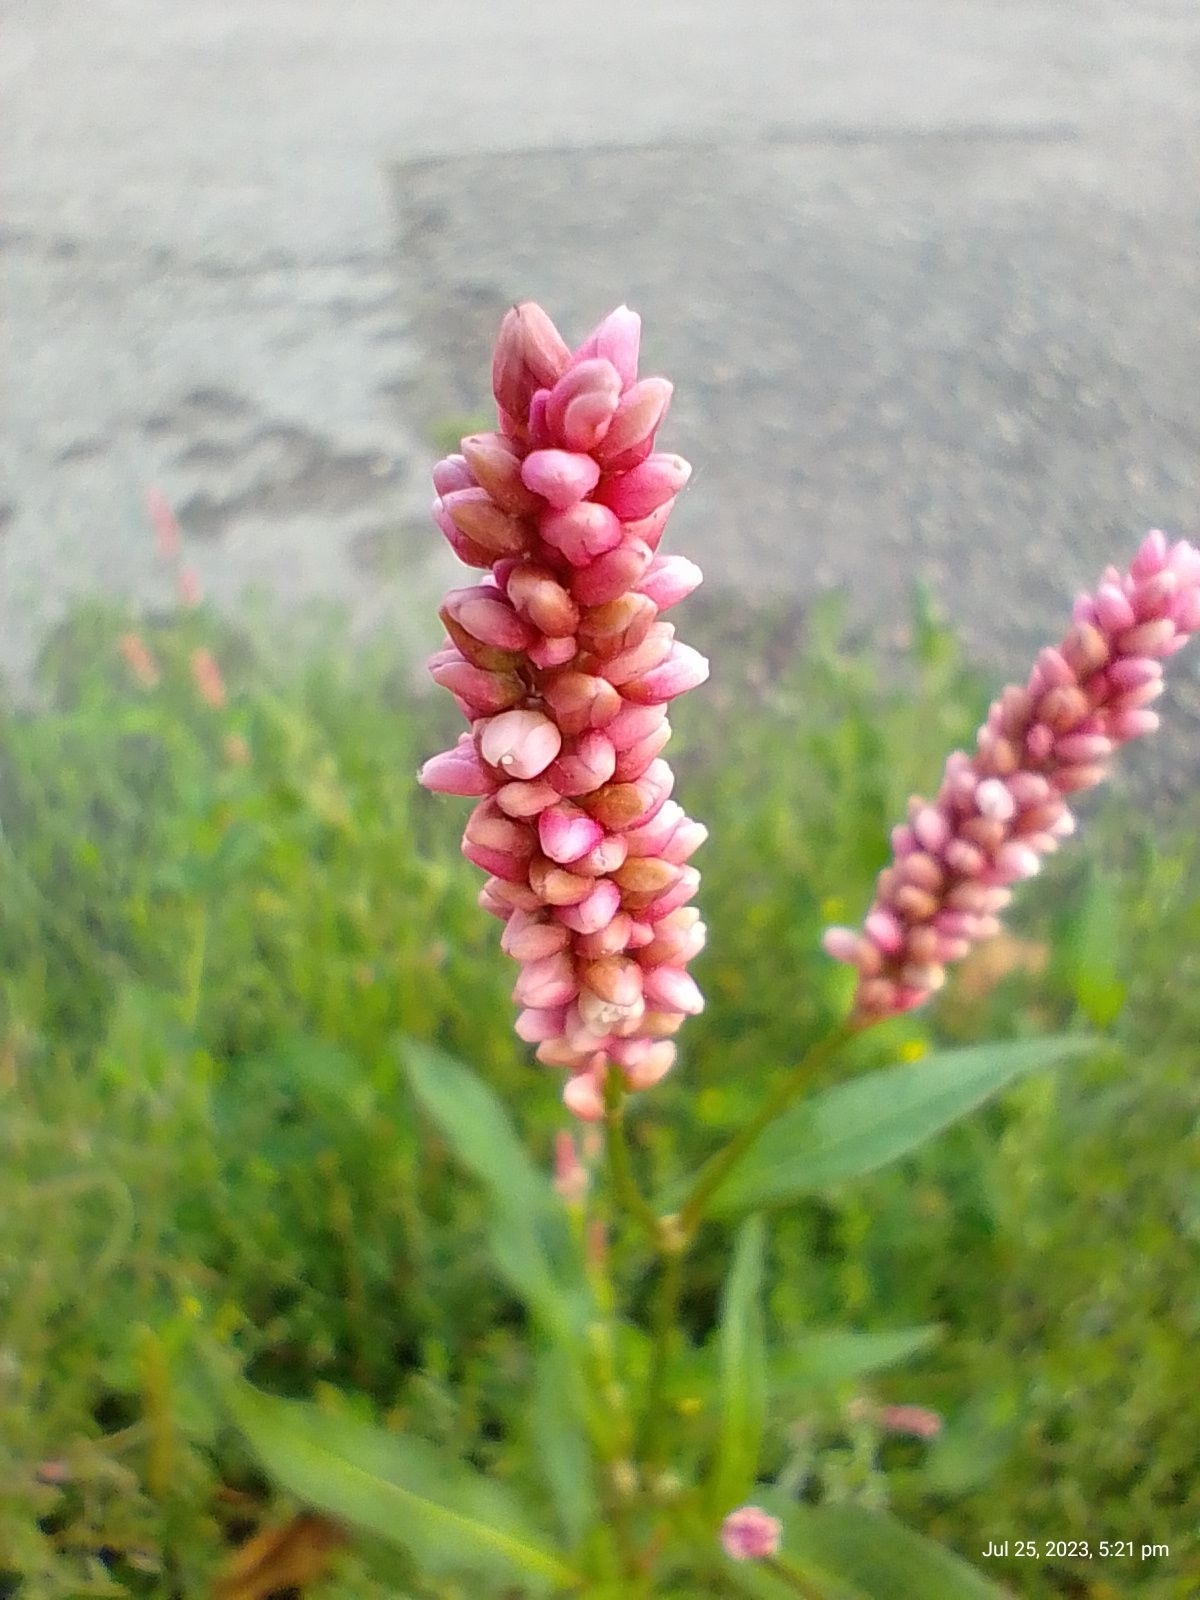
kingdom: Plantae
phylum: Tracheophyta
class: Magnoliopsida
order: Caryophyllales
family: Polygonaceae
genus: Persicaria
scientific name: Persicaria maculosa
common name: Redshank
